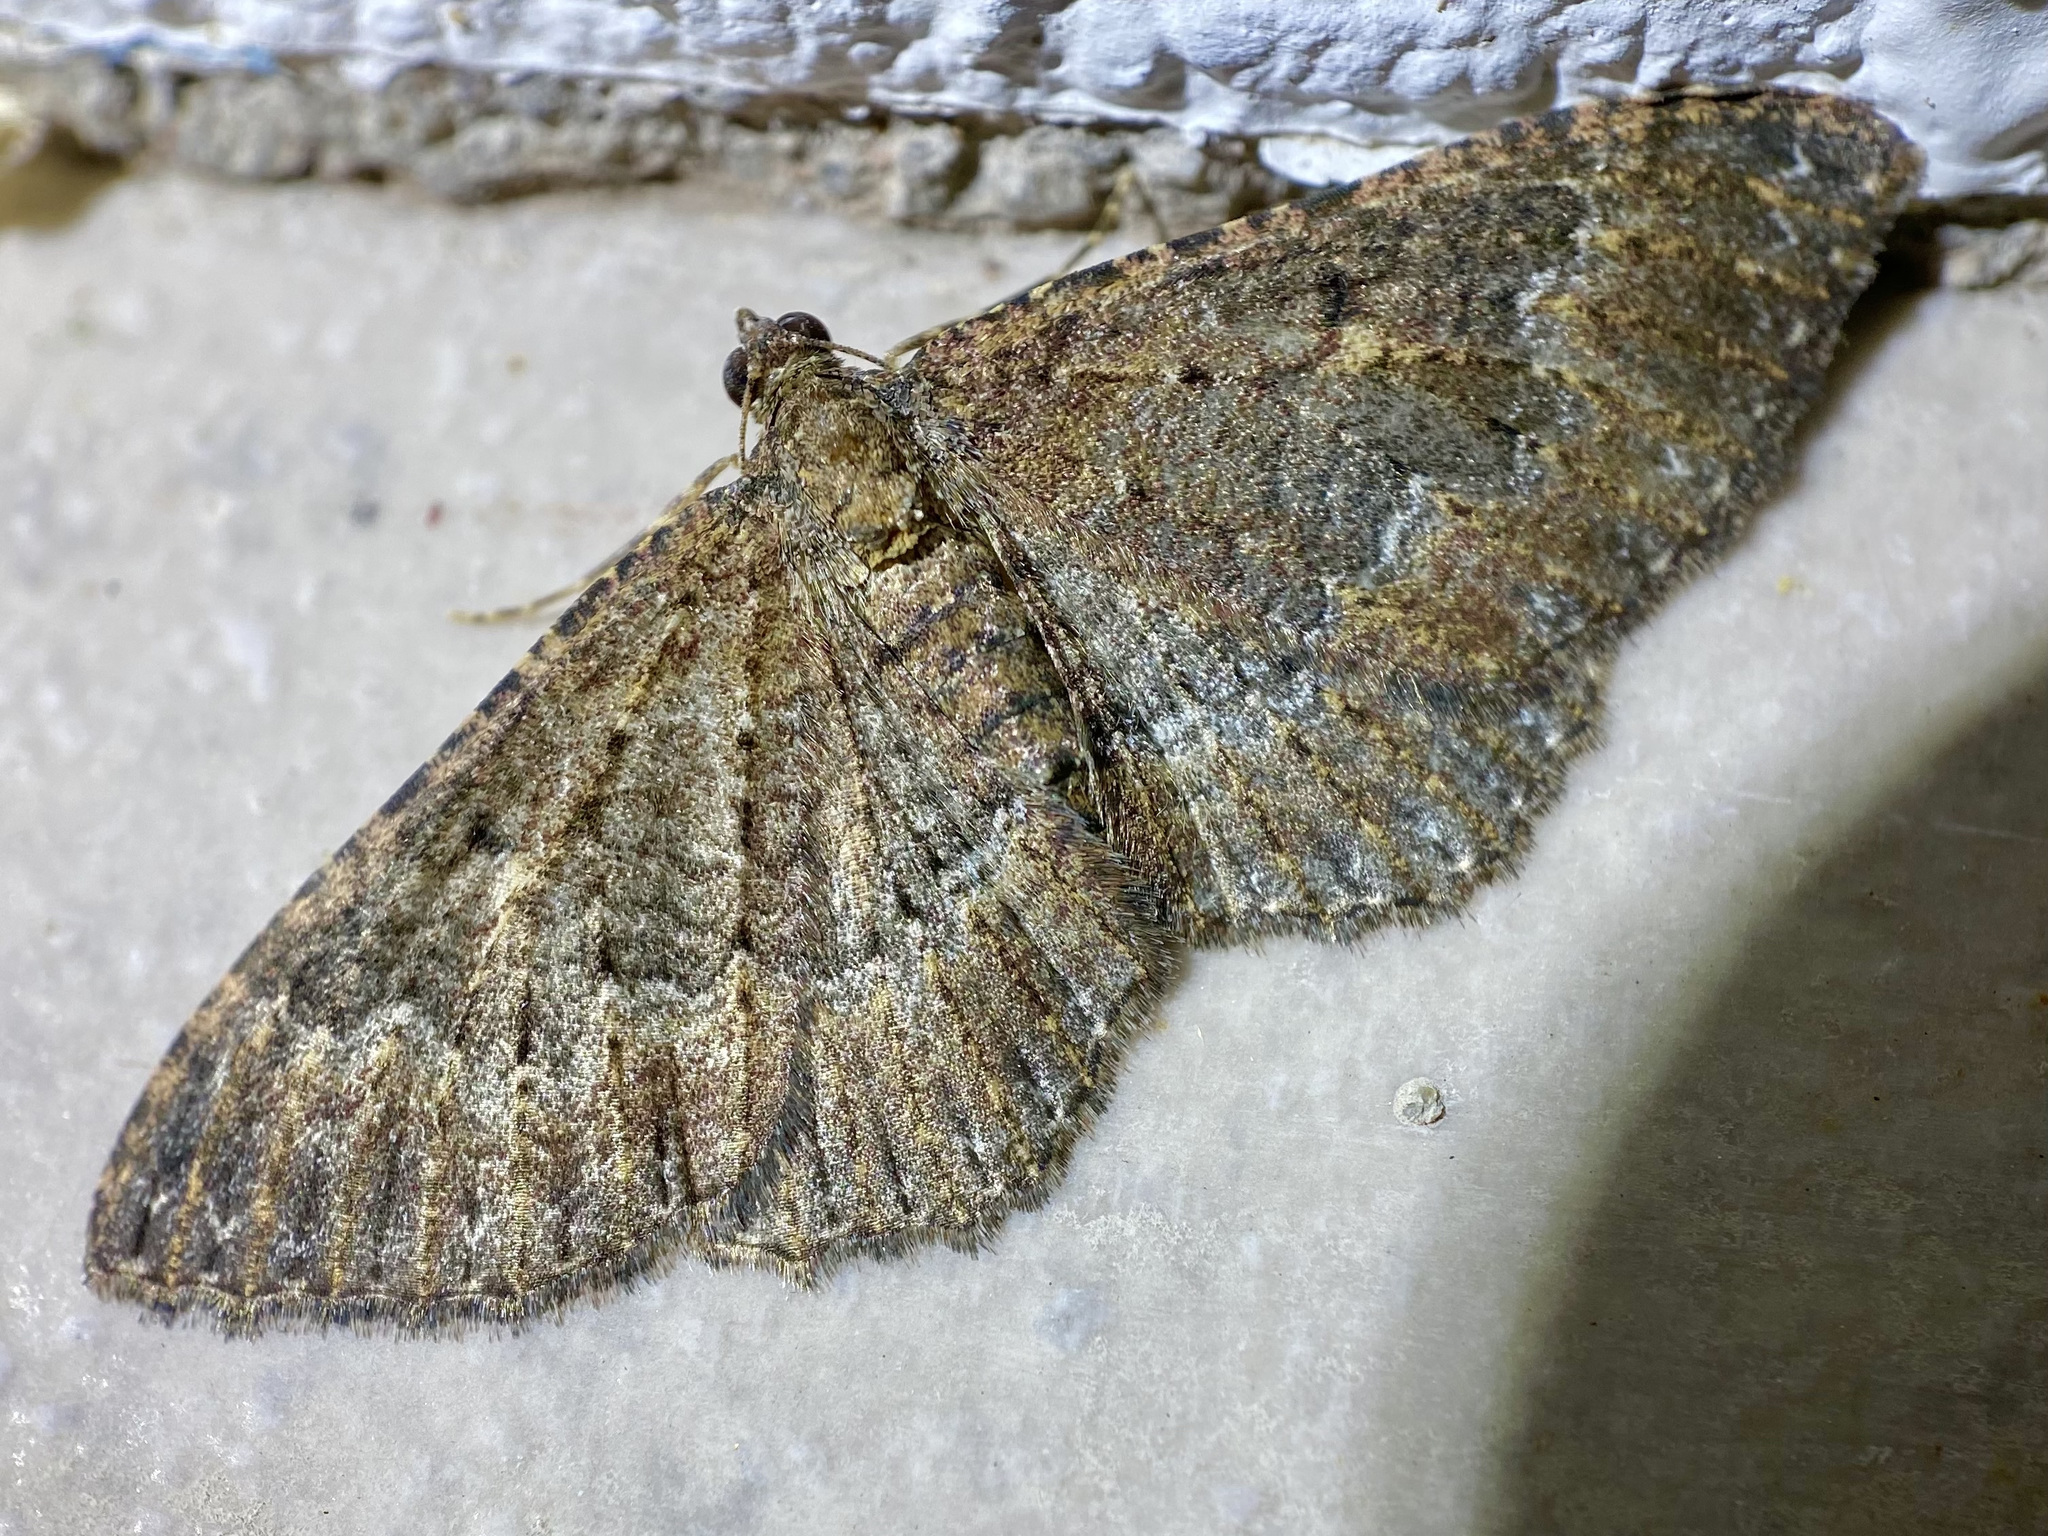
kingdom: Animalia
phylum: Arthropoda
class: Insecta
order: Lepidoptera
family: Geometridae
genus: Disclisioprocta
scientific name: Disclisioprocta stellata
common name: Somber carpet
